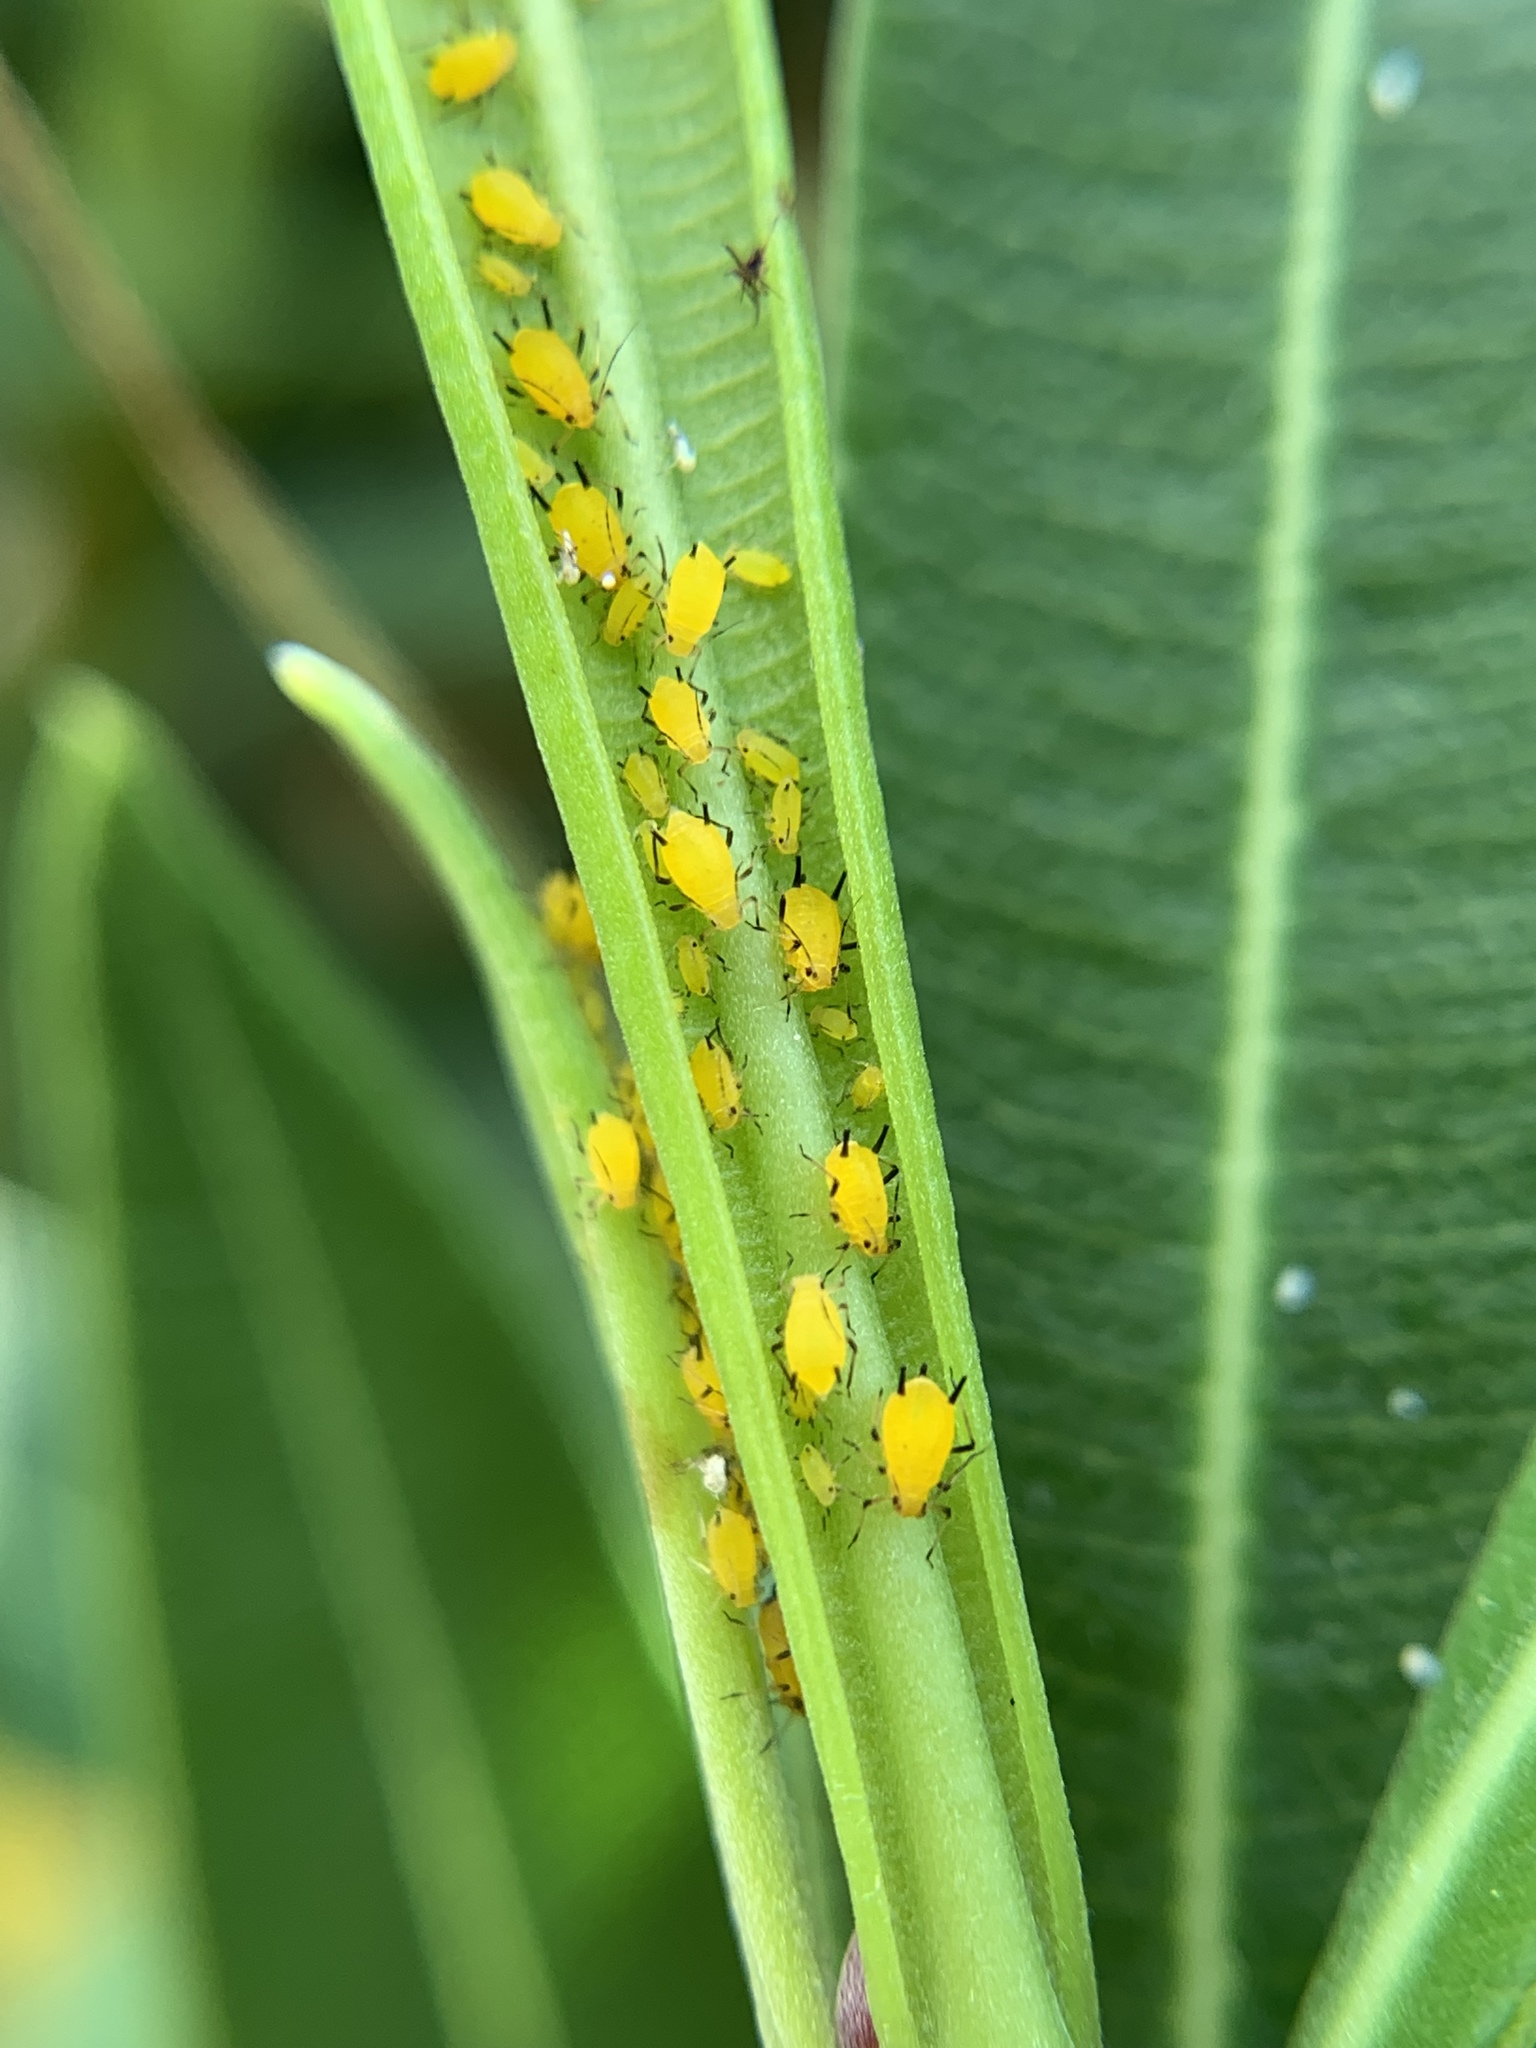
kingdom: Animalia
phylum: Arthropoda
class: Insecta
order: Hemiptera
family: Aphididae
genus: Aphis
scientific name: Aphis nerii
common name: Oleander aphid
